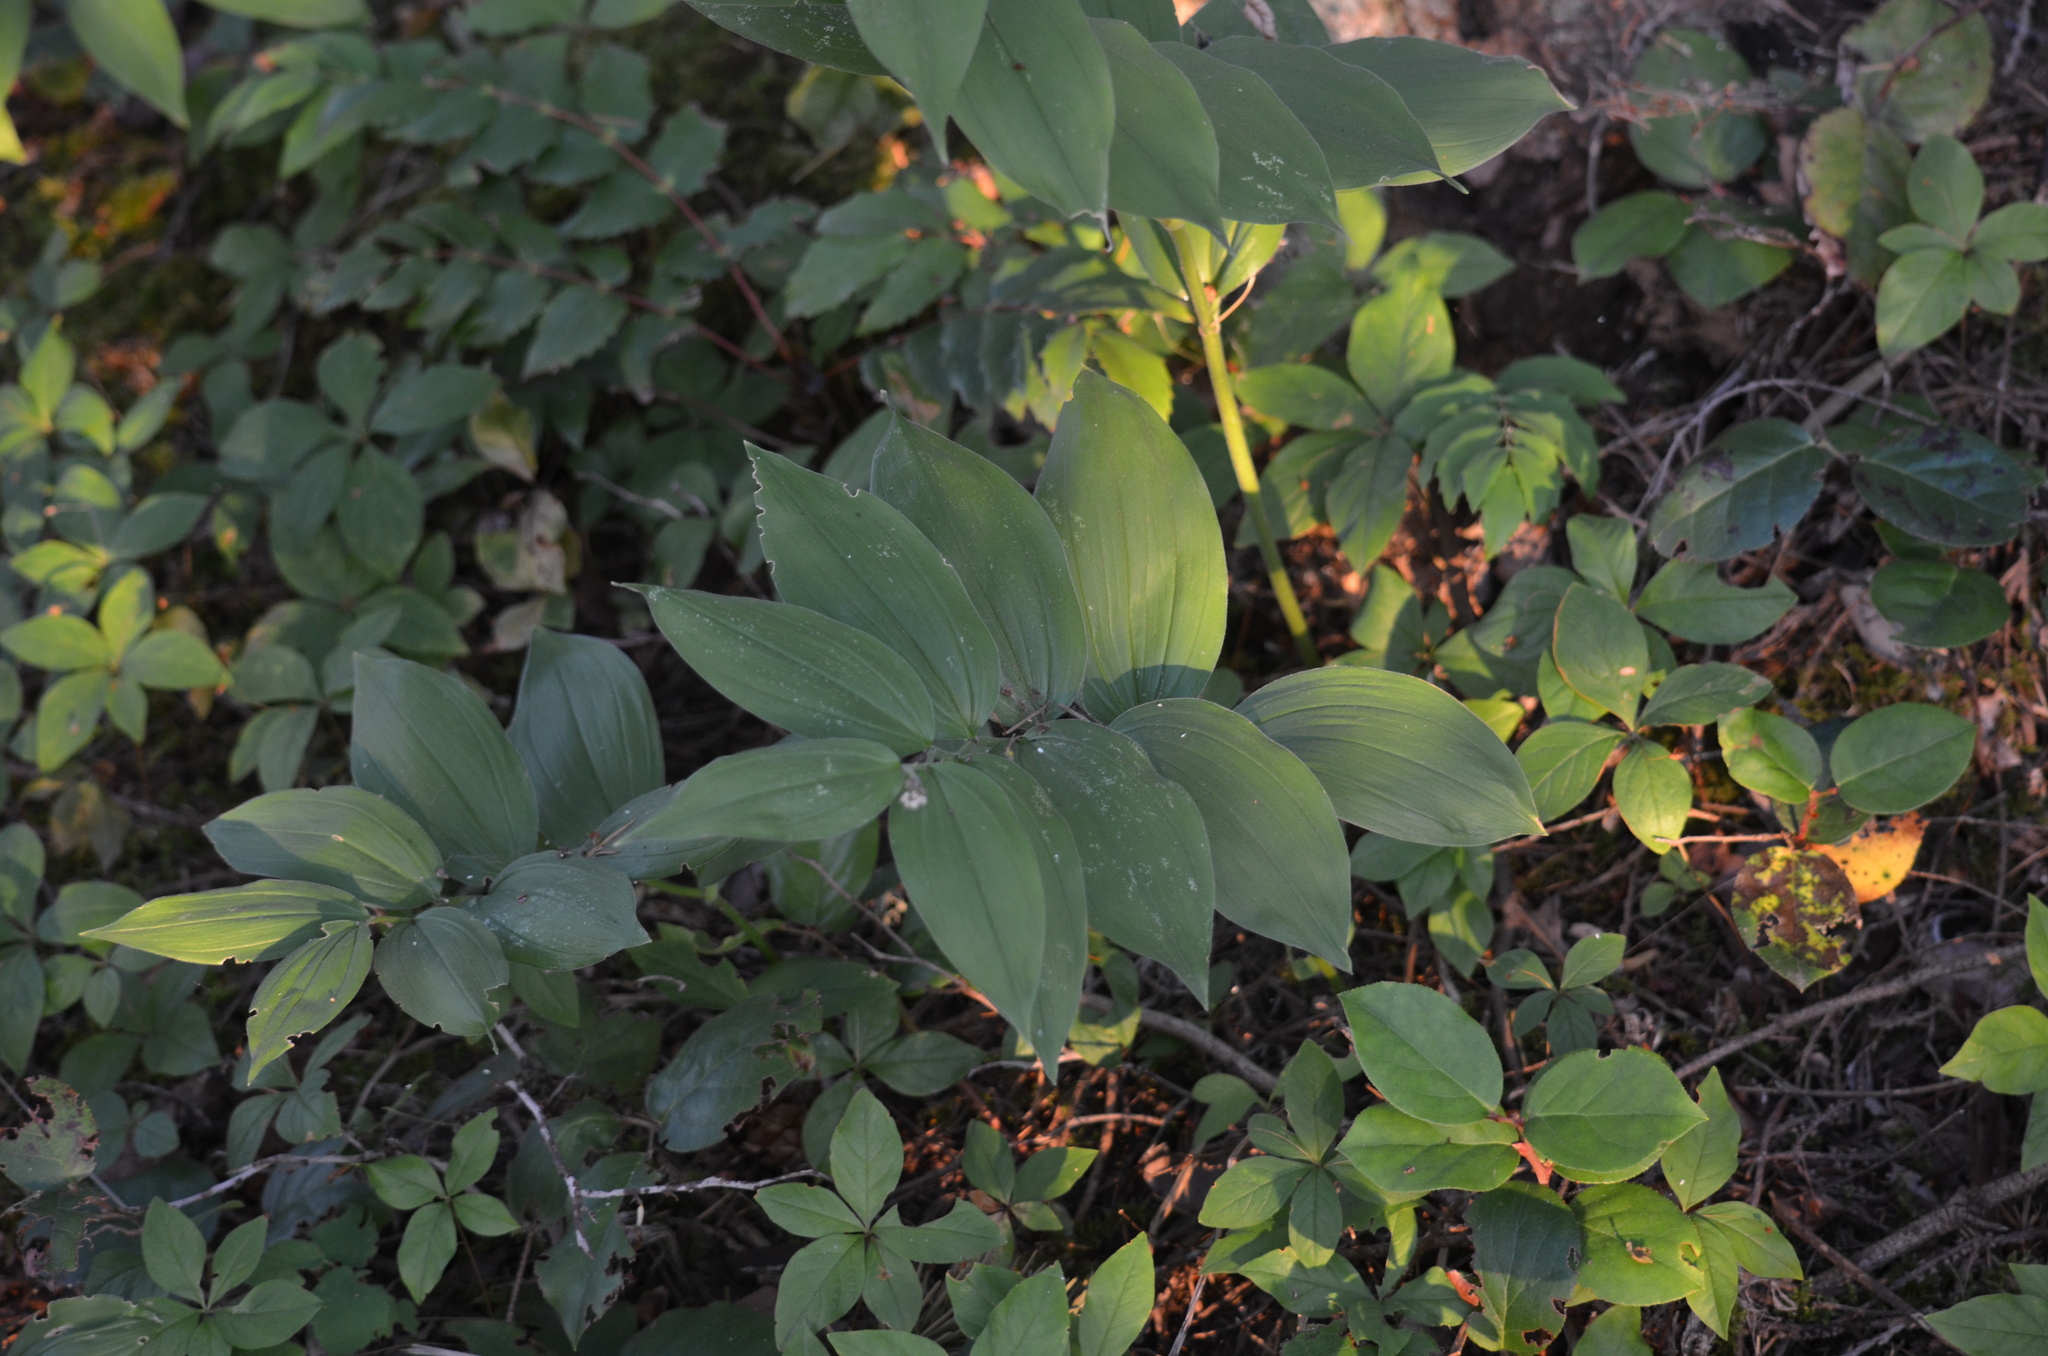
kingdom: Plantae
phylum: Tracheophyta
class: Liliopsida
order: Asparagales
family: Asparagaceae
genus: Maianthemum
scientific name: Maianthemum racemosum
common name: False spikenard
